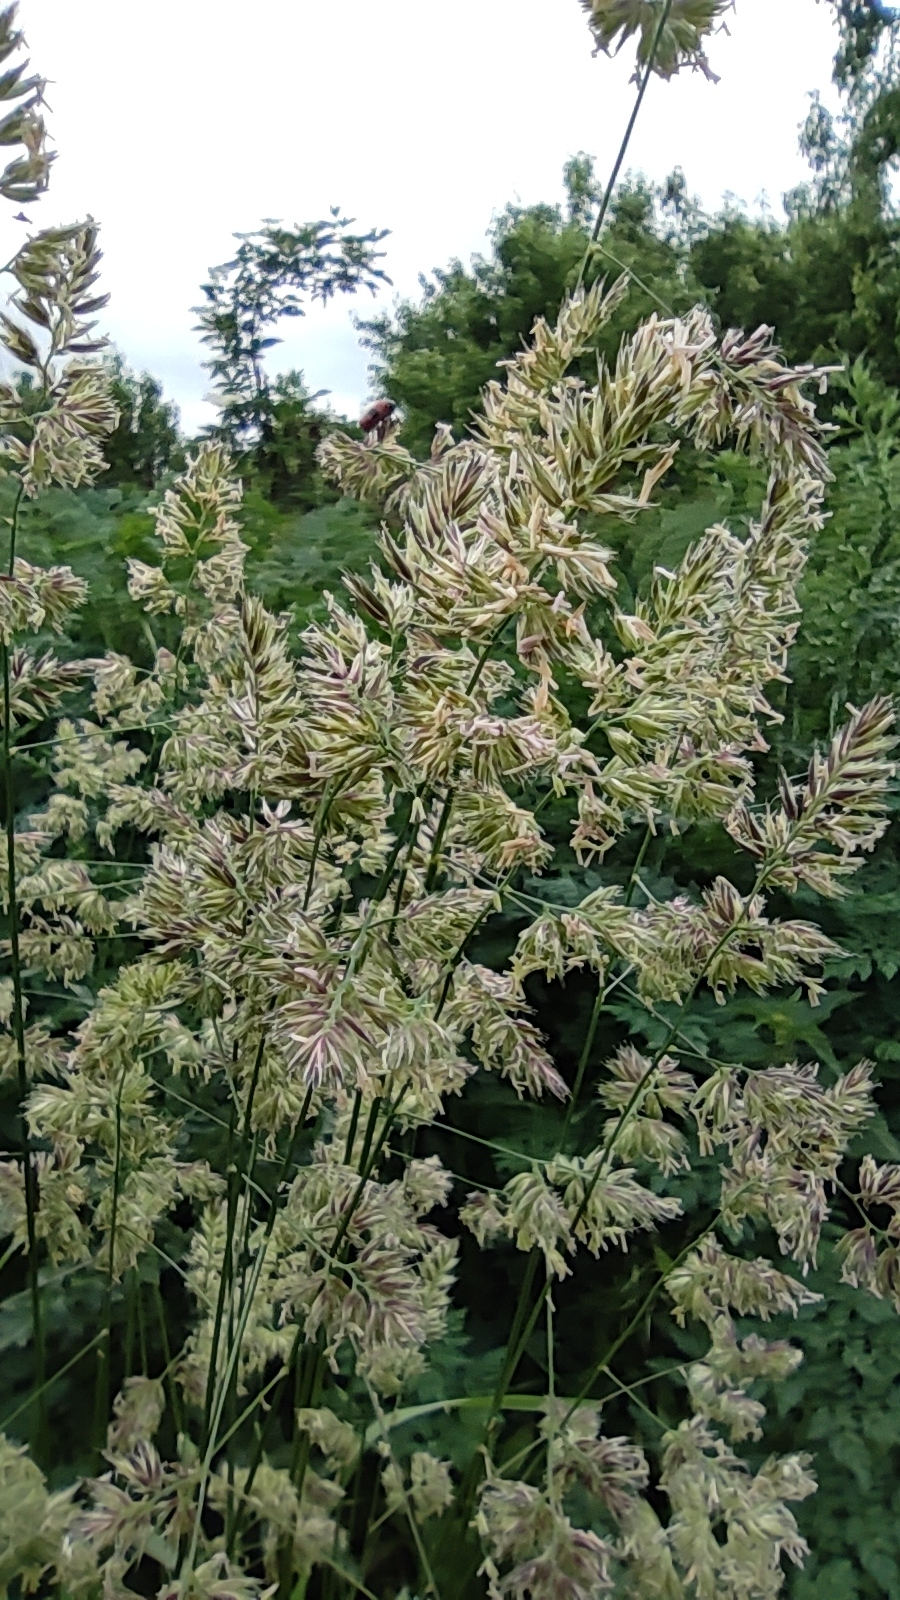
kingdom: Plantae
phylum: Tracheophyta
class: Liliopsida
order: Poales
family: Poaceae
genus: Dactylis
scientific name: Dactylis glomerata
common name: Orchardgrass
